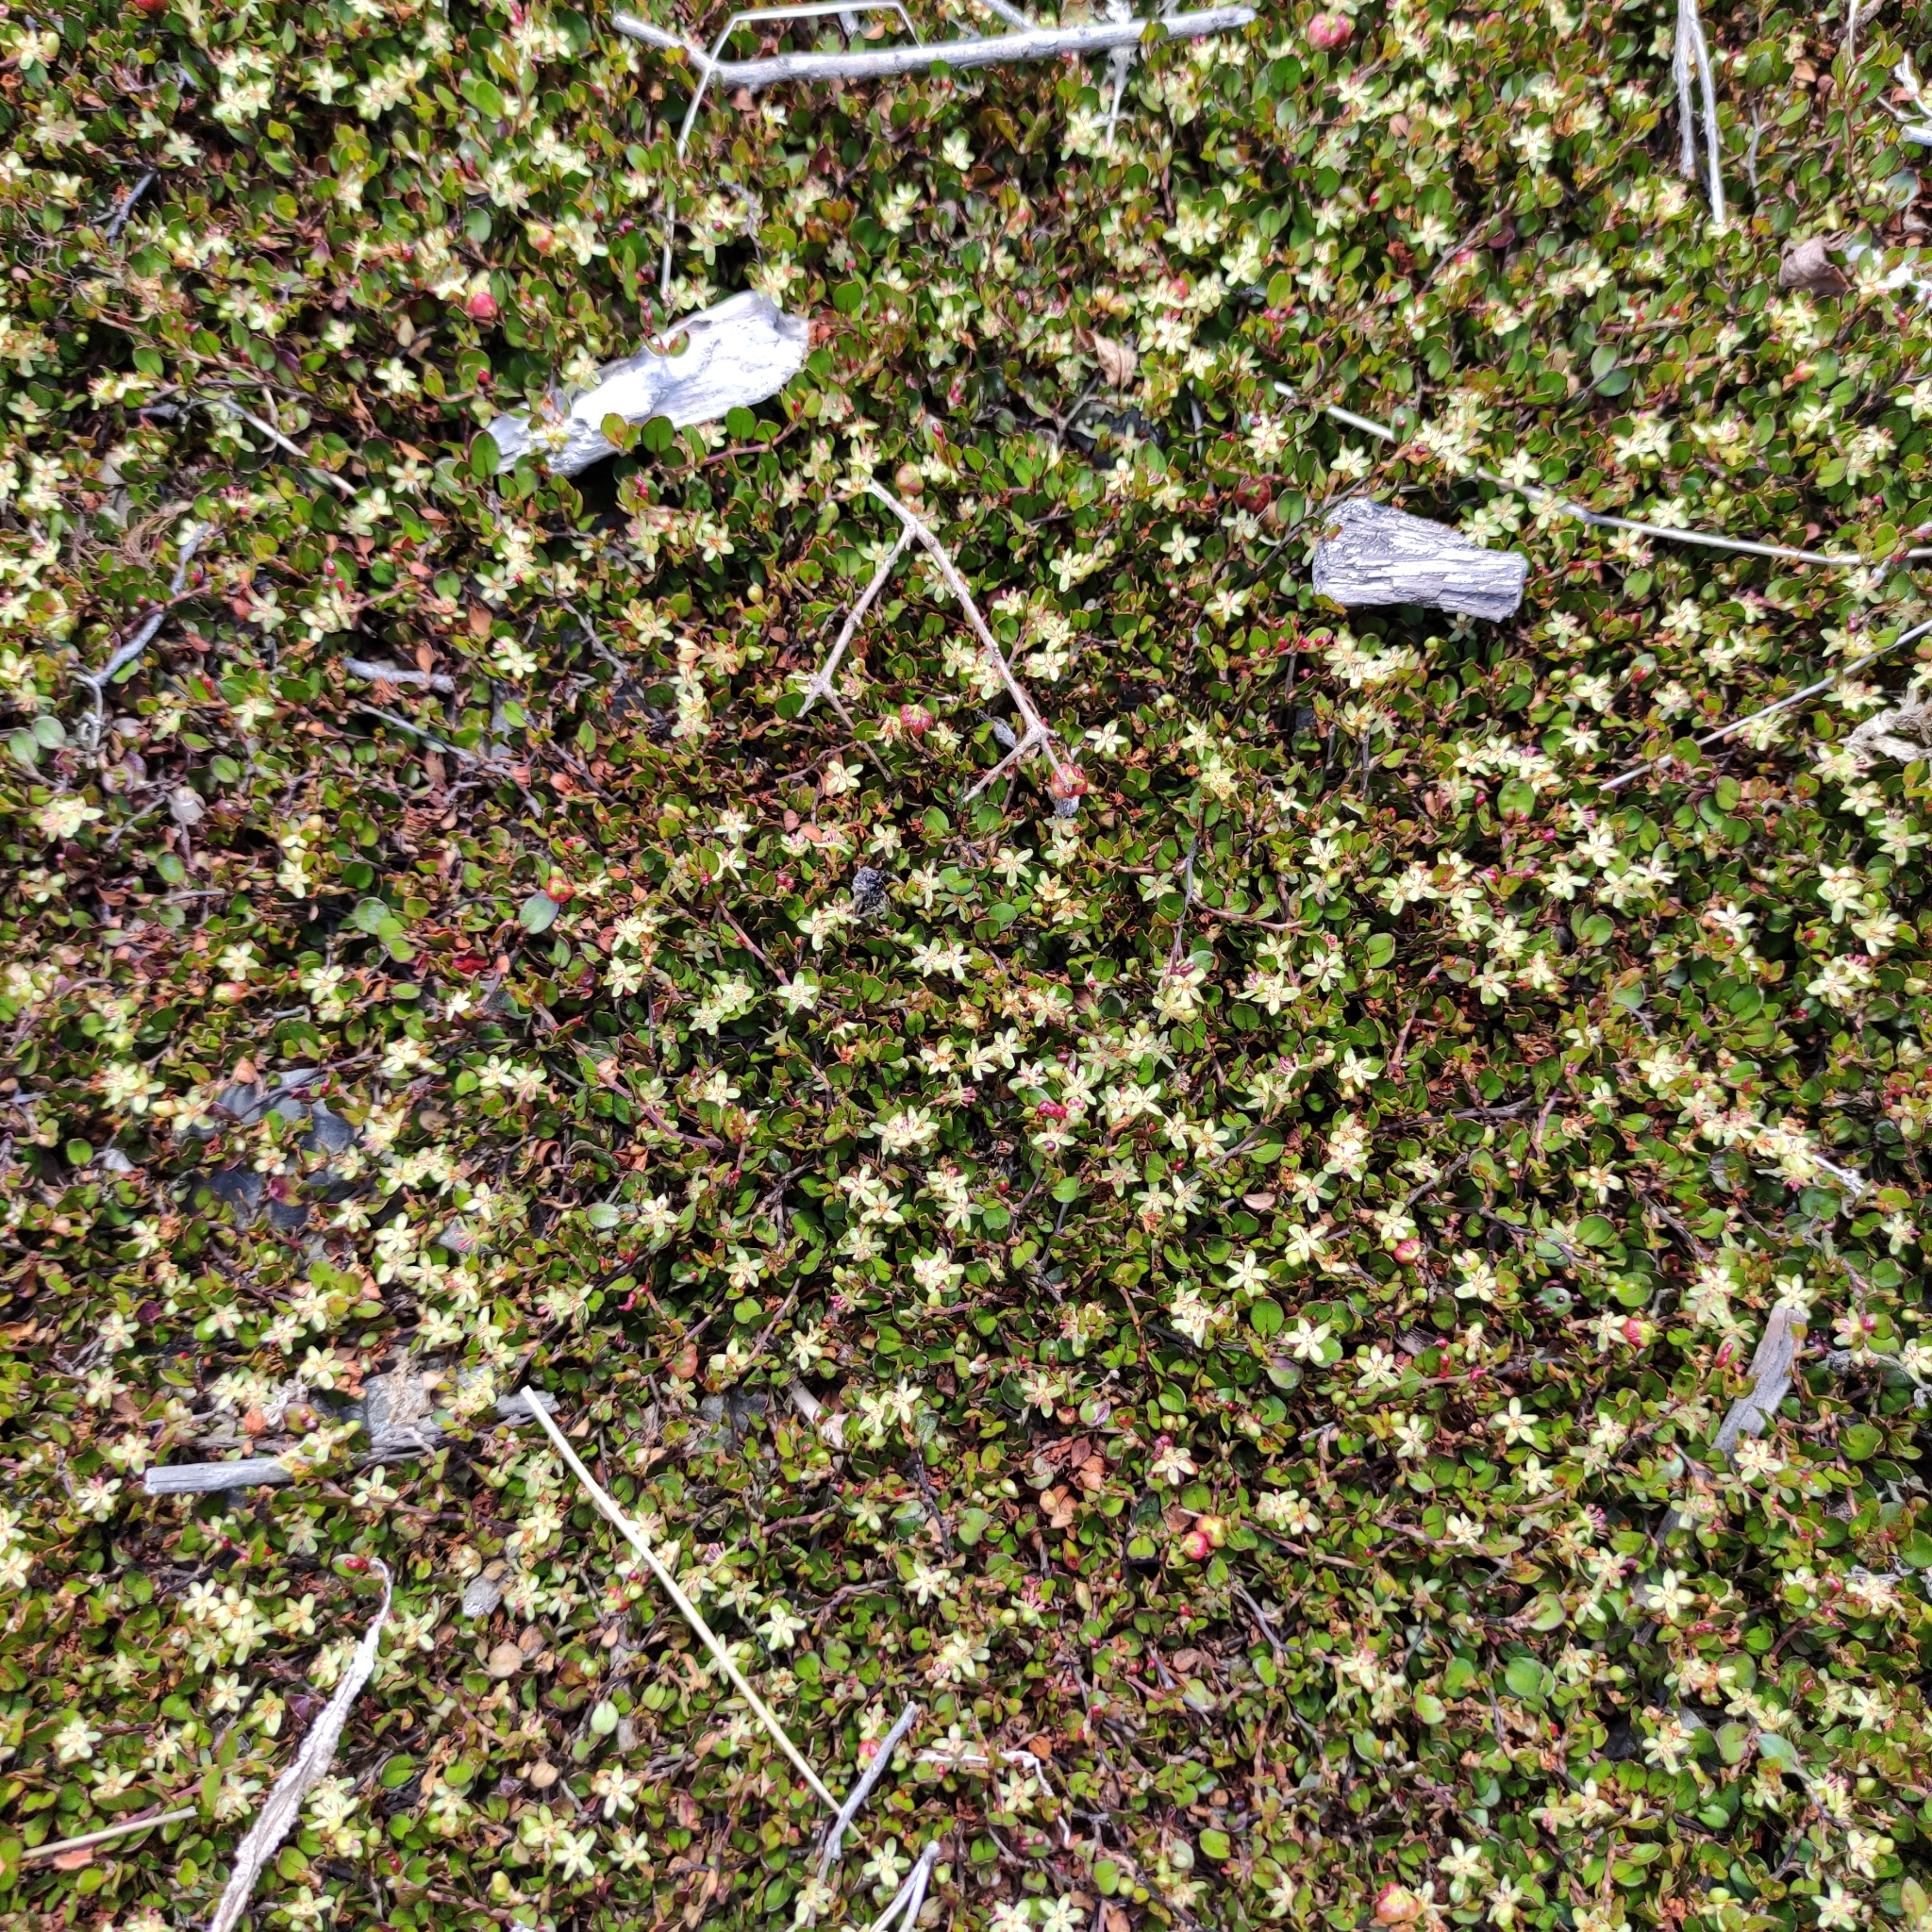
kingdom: Plantae
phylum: Tracheophyta
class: Magnoliopsida
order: Caryophyllales
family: Polygonaceae
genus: Muehlenbeckia
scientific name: Muehlenbeckia axillaris
